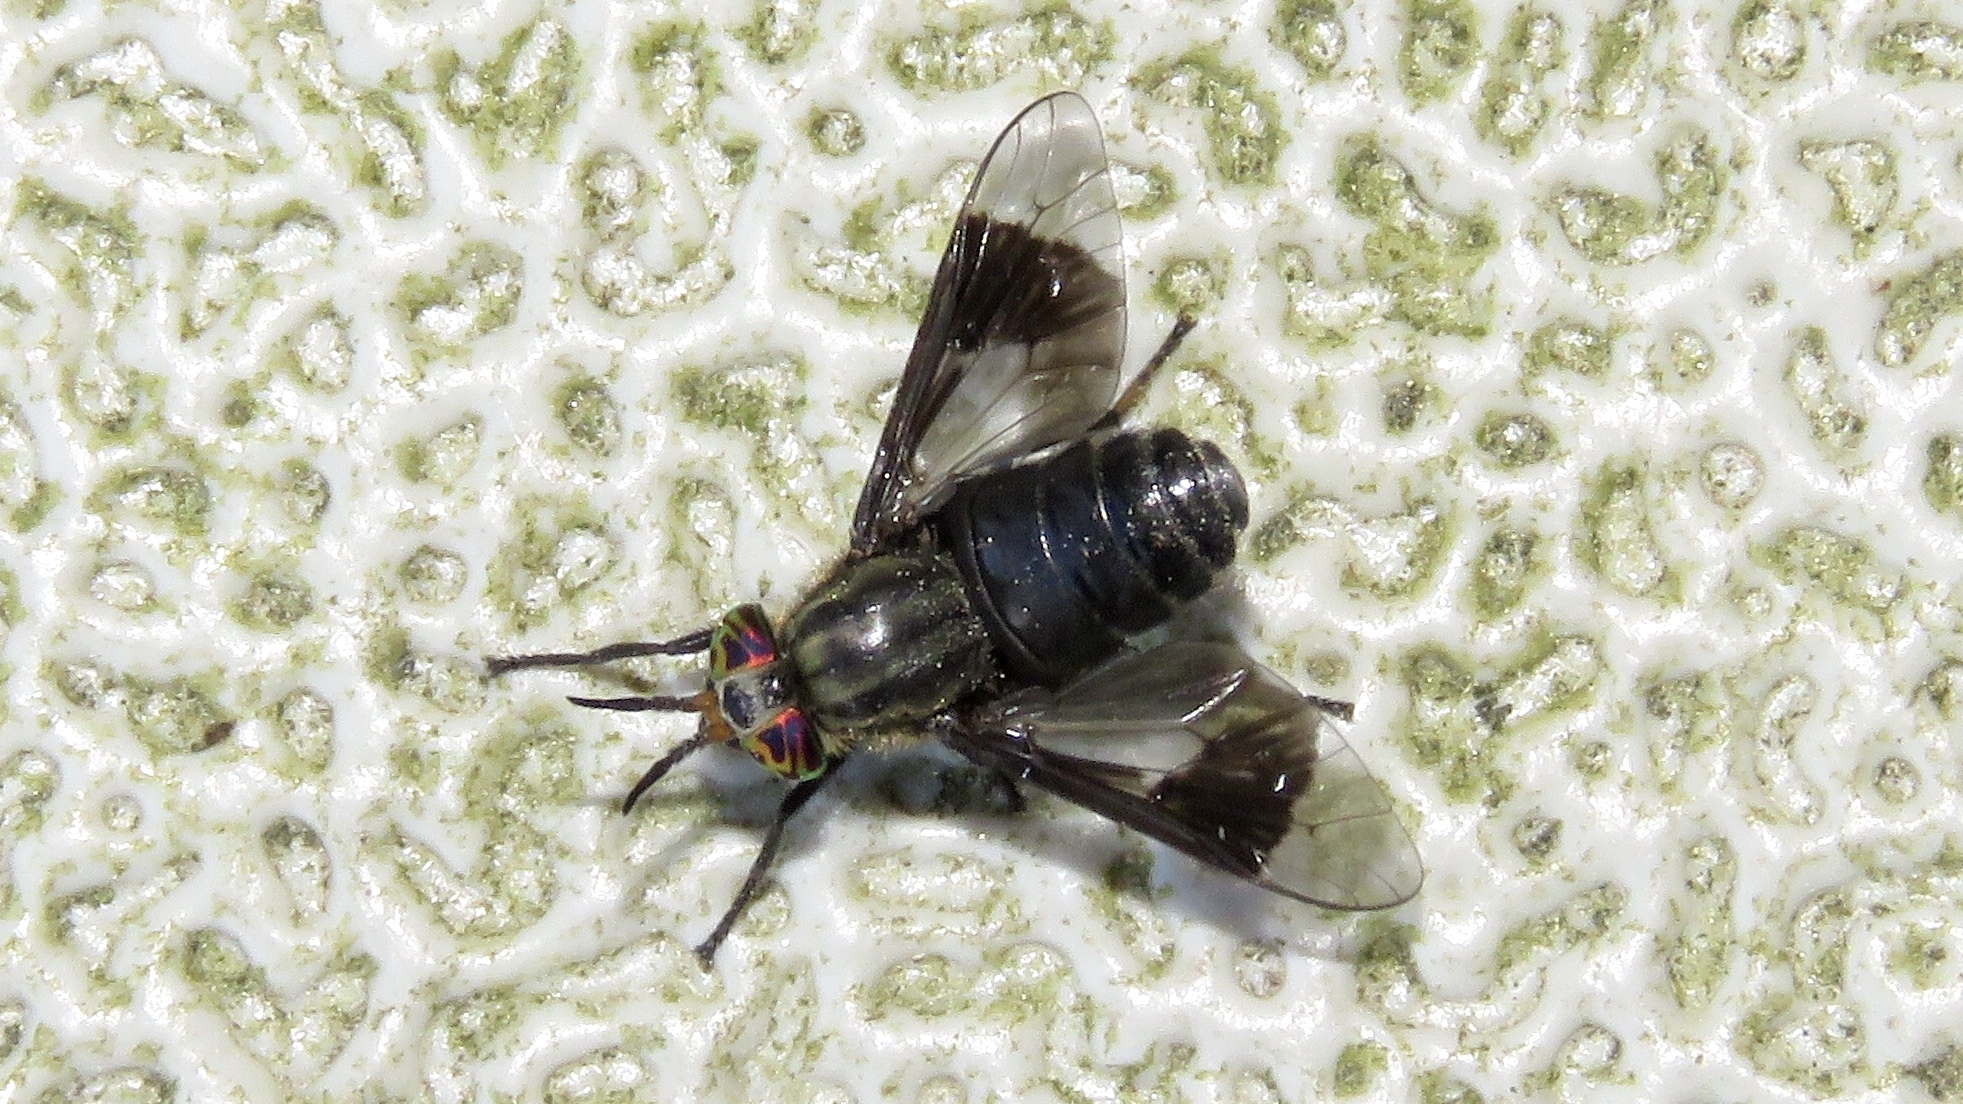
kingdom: Animalia
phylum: Arthropoda
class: Insecta
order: Diptera
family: Tabanidae
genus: Chrysops
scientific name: Chrysops niger
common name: Black deer fly
